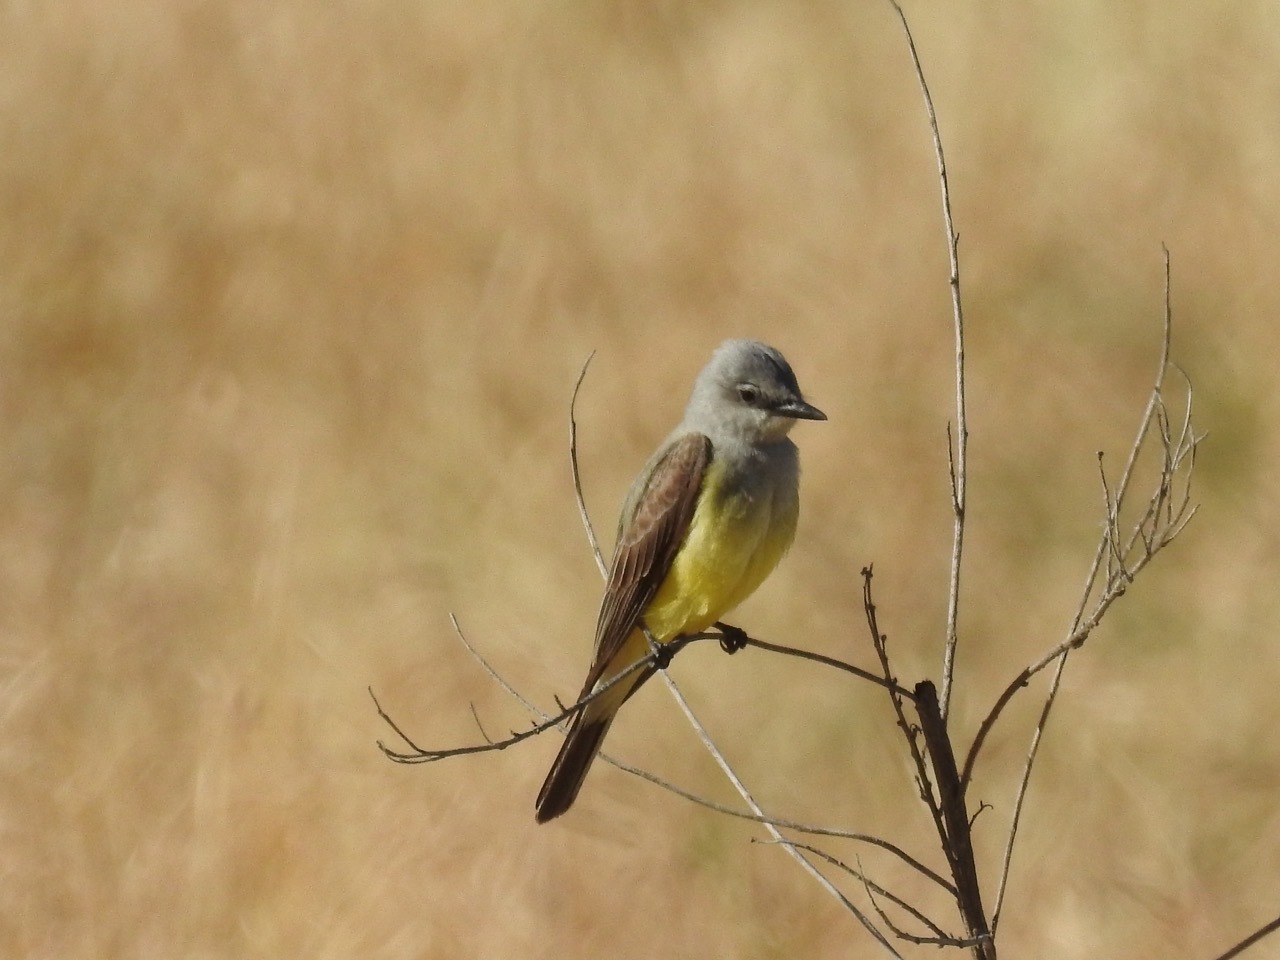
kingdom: Animalia
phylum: Chordata
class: Aves
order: Passeriformes
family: Tyrannidae
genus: Tyrannus
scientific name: Tyrannus verticalis
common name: Western kingbird
